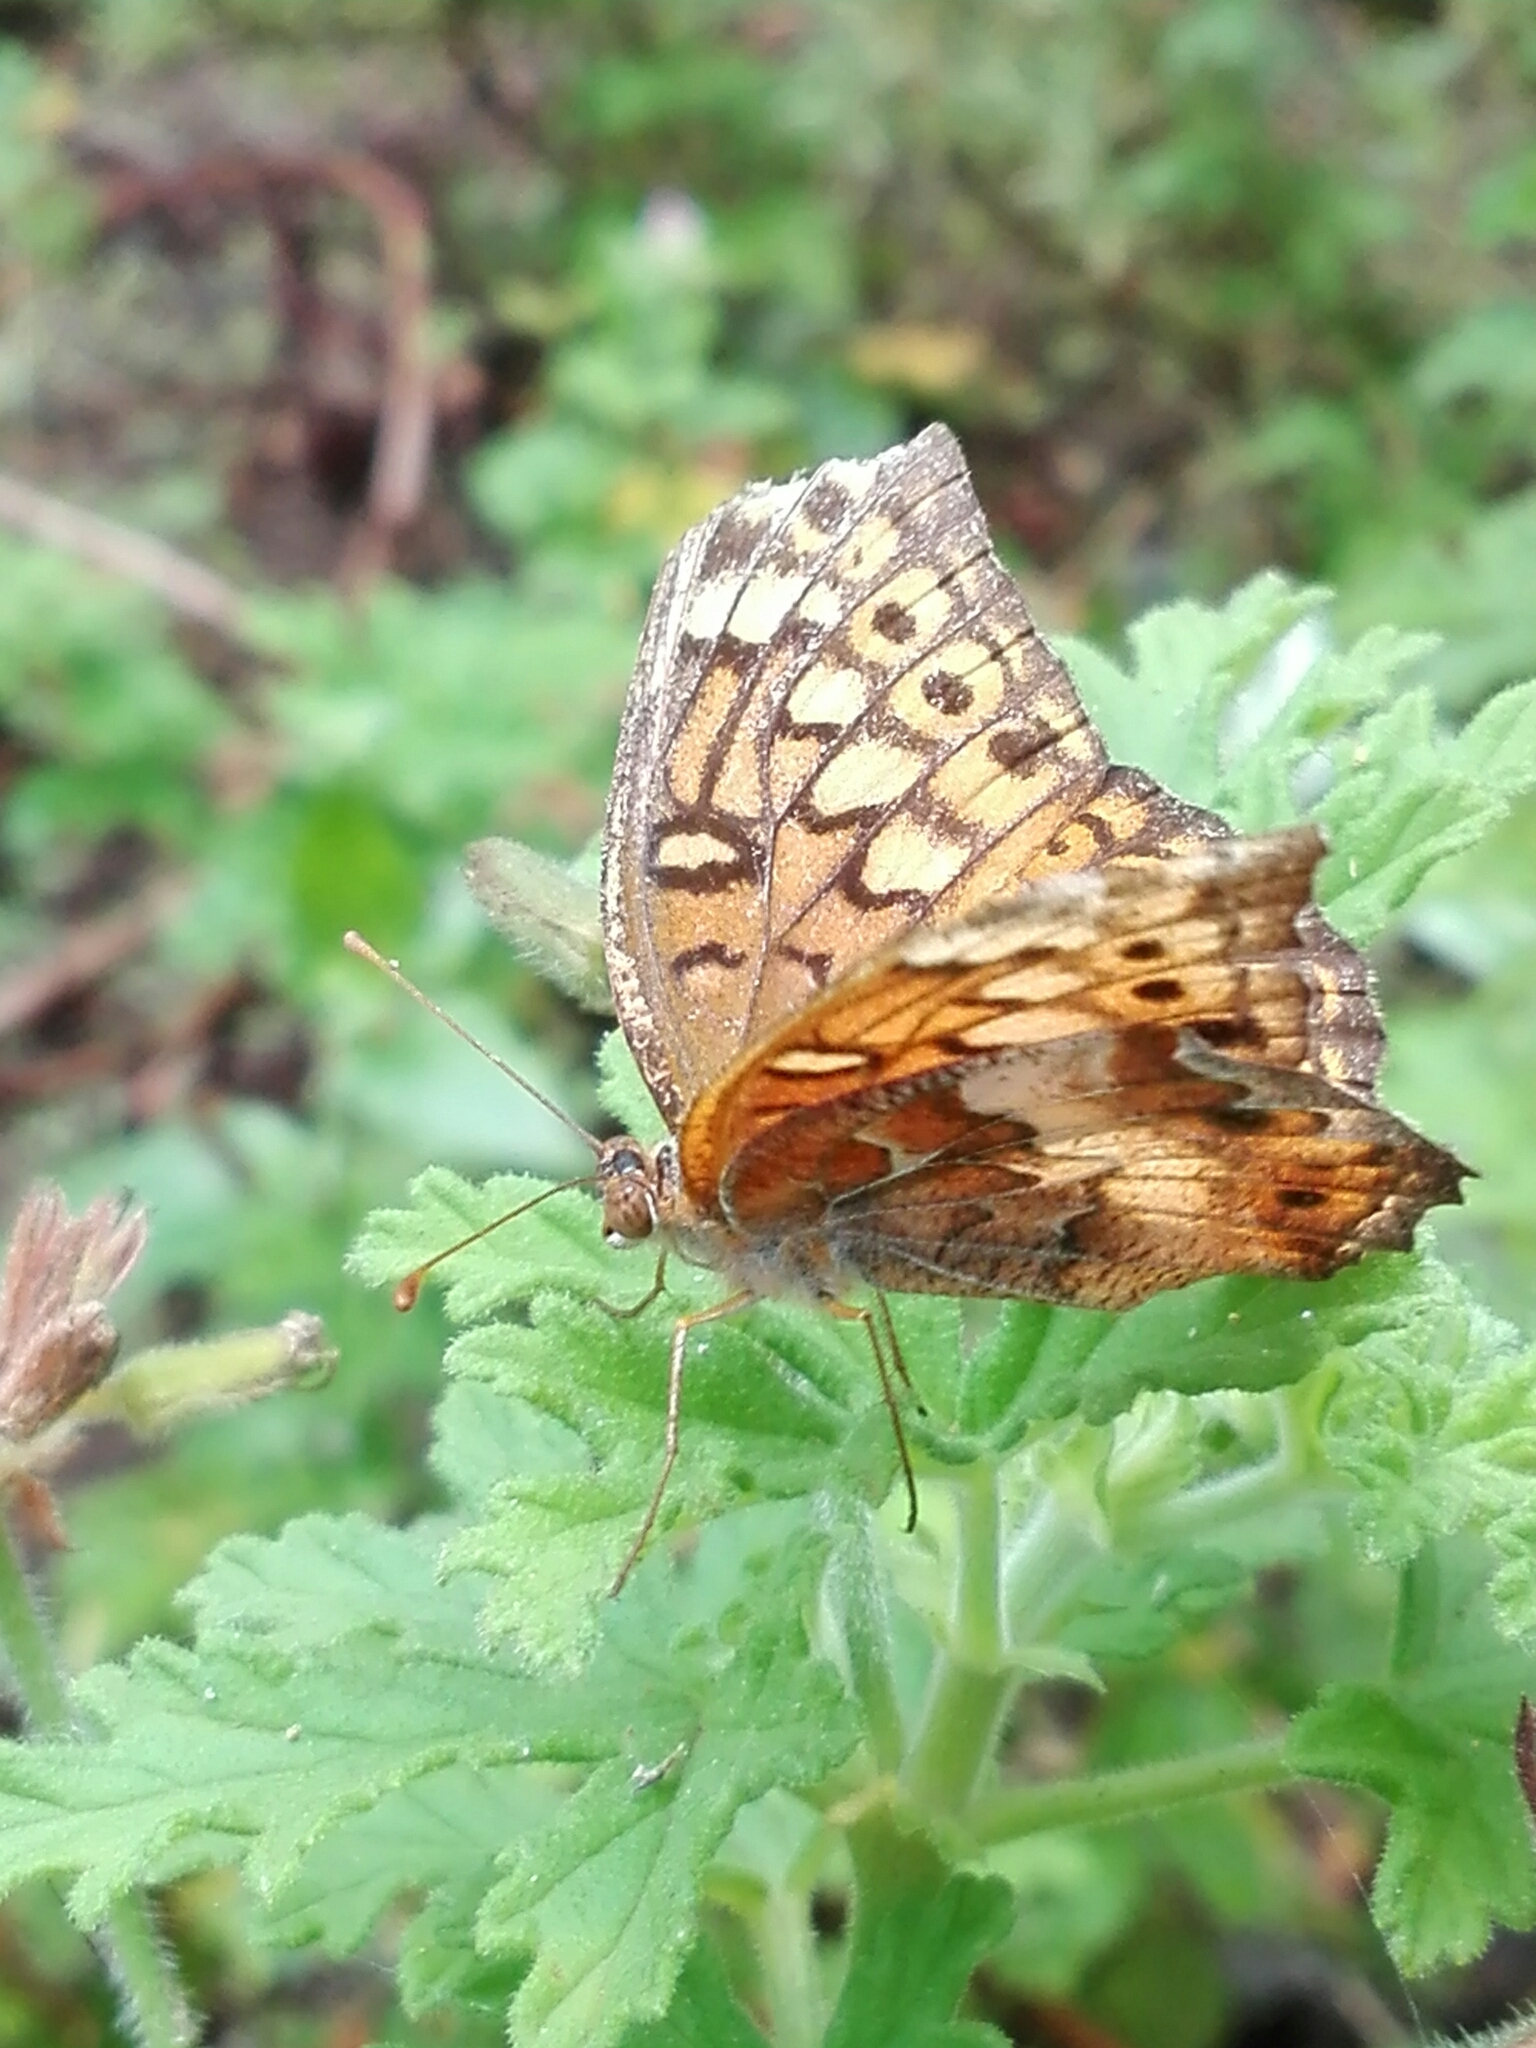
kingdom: Animalia
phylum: Arthropoda
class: Insecta
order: Lepidoptera
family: Nymphalidae
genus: Euptoieta
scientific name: Euptoieta claudia
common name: Variegated fritillary
